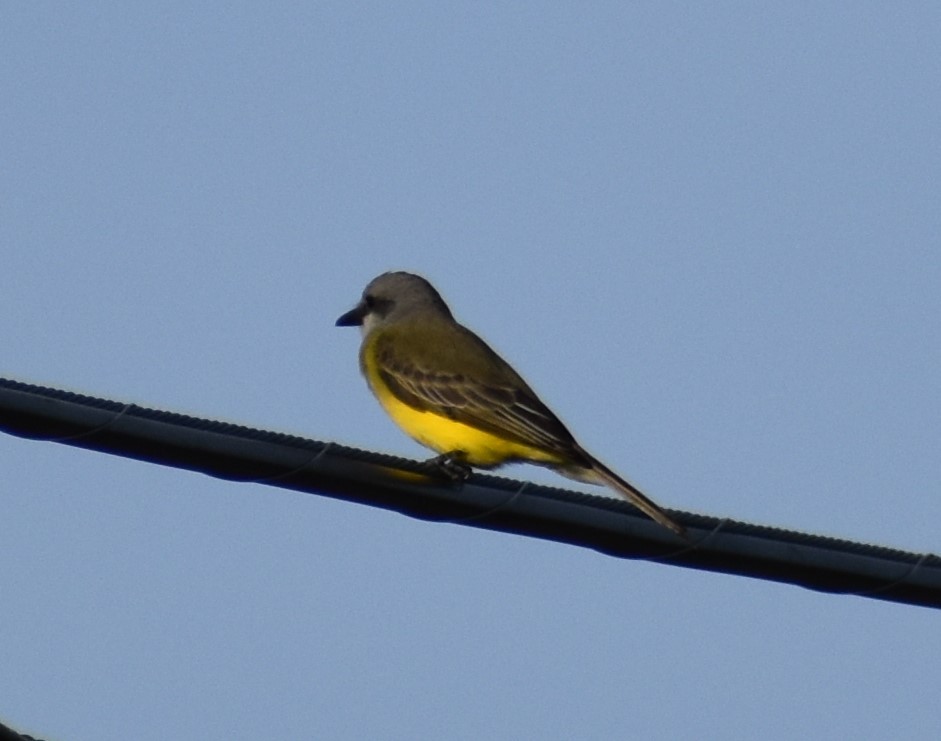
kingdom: Animalia
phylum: Chordata
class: Aves
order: Passeriformes
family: Tyrannidae
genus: Tyrannus
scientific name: Tyrannus melancholicus
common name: Tropical kingbird
